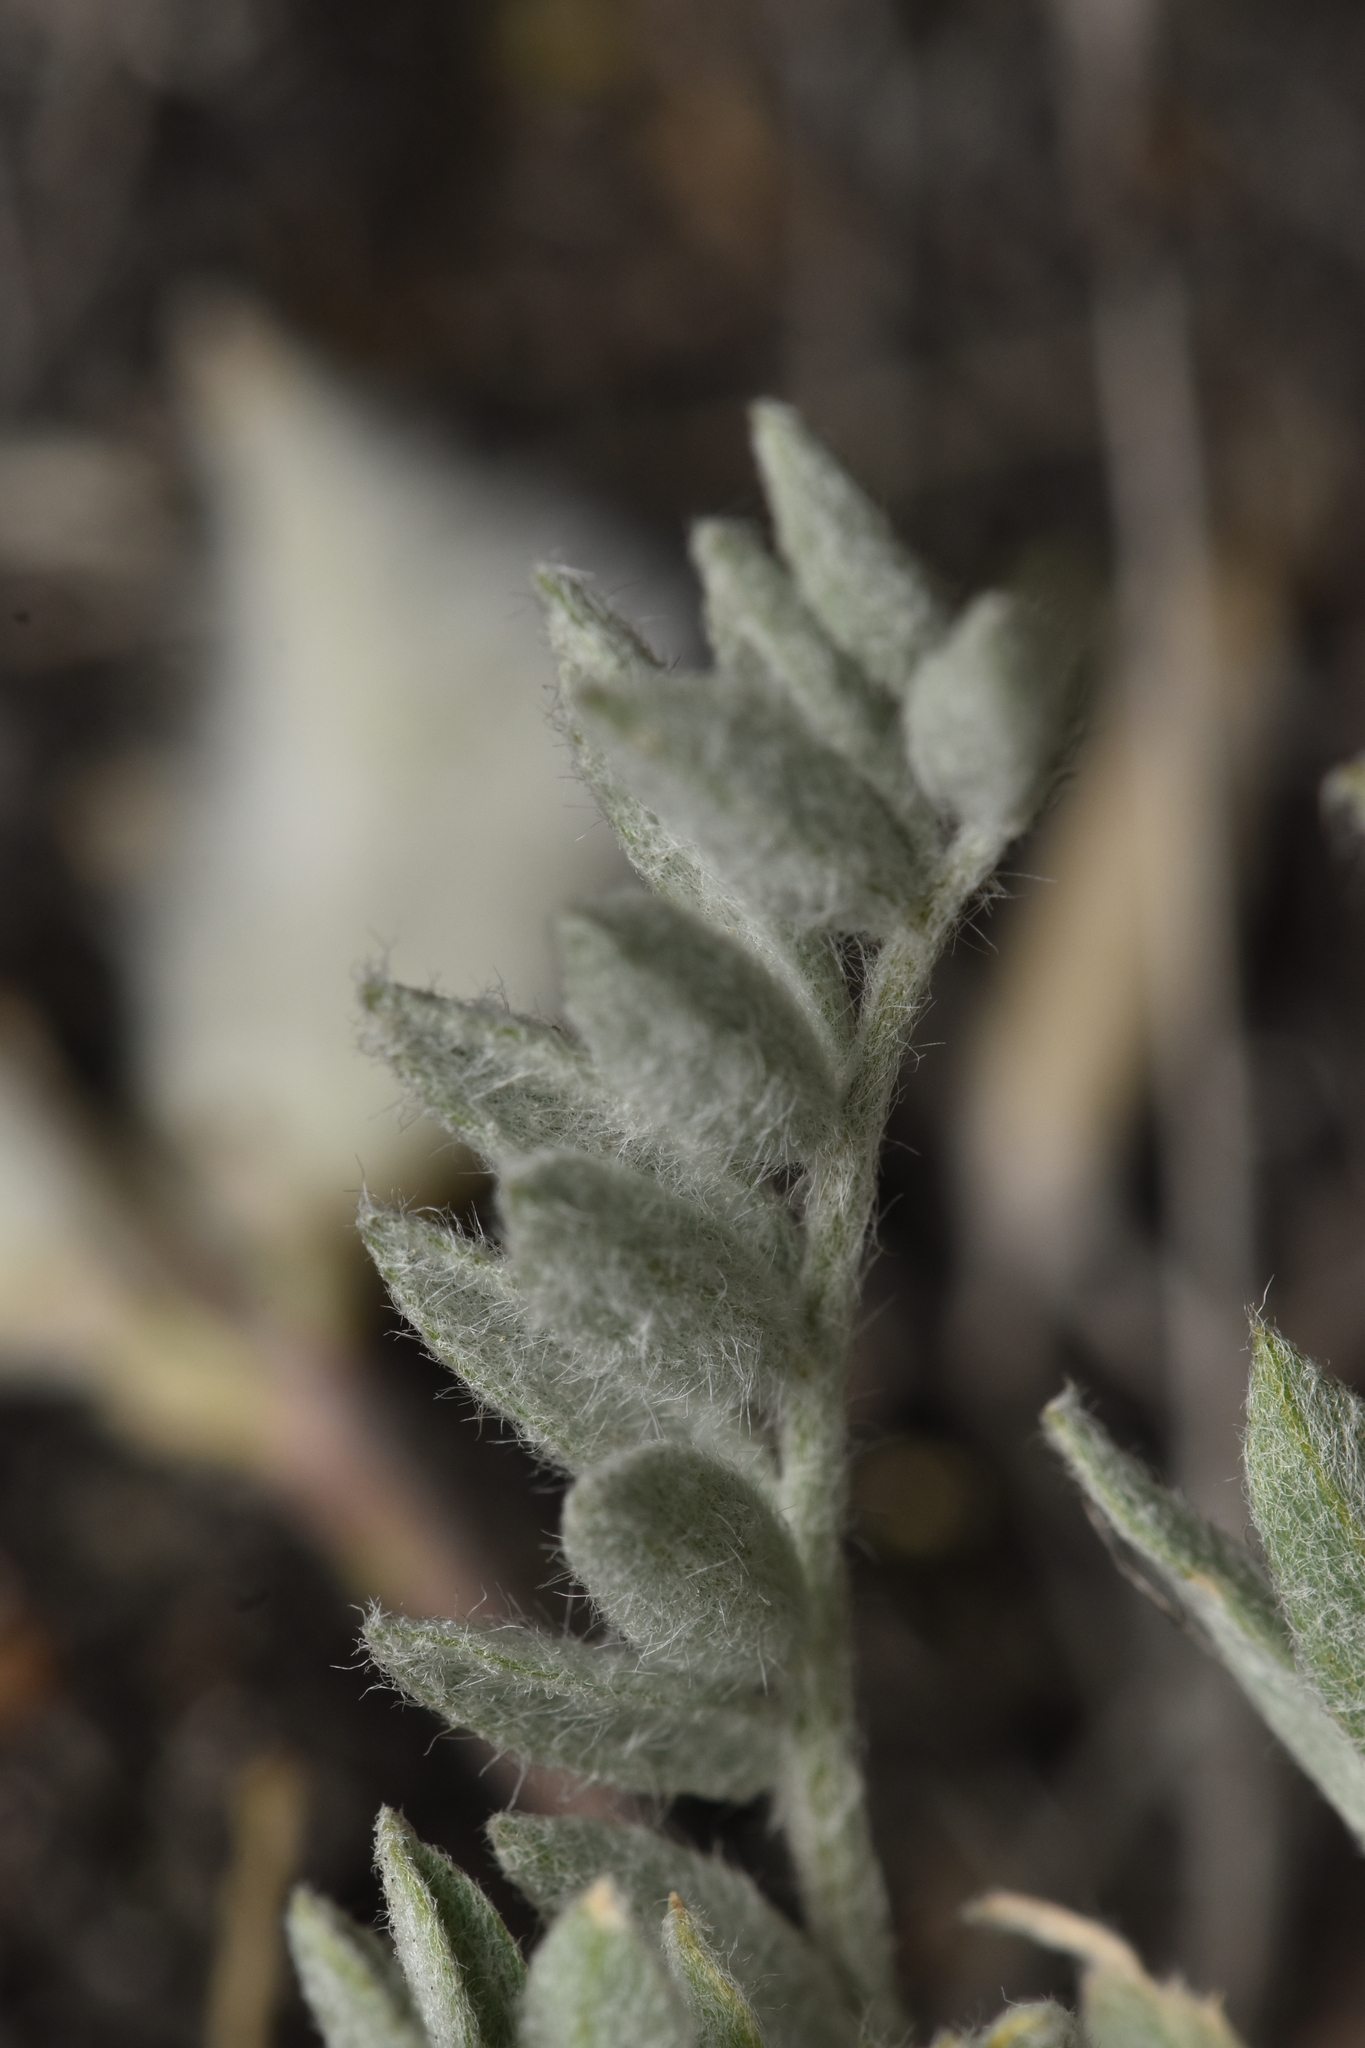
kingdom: Plantae
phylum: Tracheophyta
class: Magnoliopsida
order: Fabales
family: Fabaceae
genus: Astragalus
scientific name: Astragalus purshii
